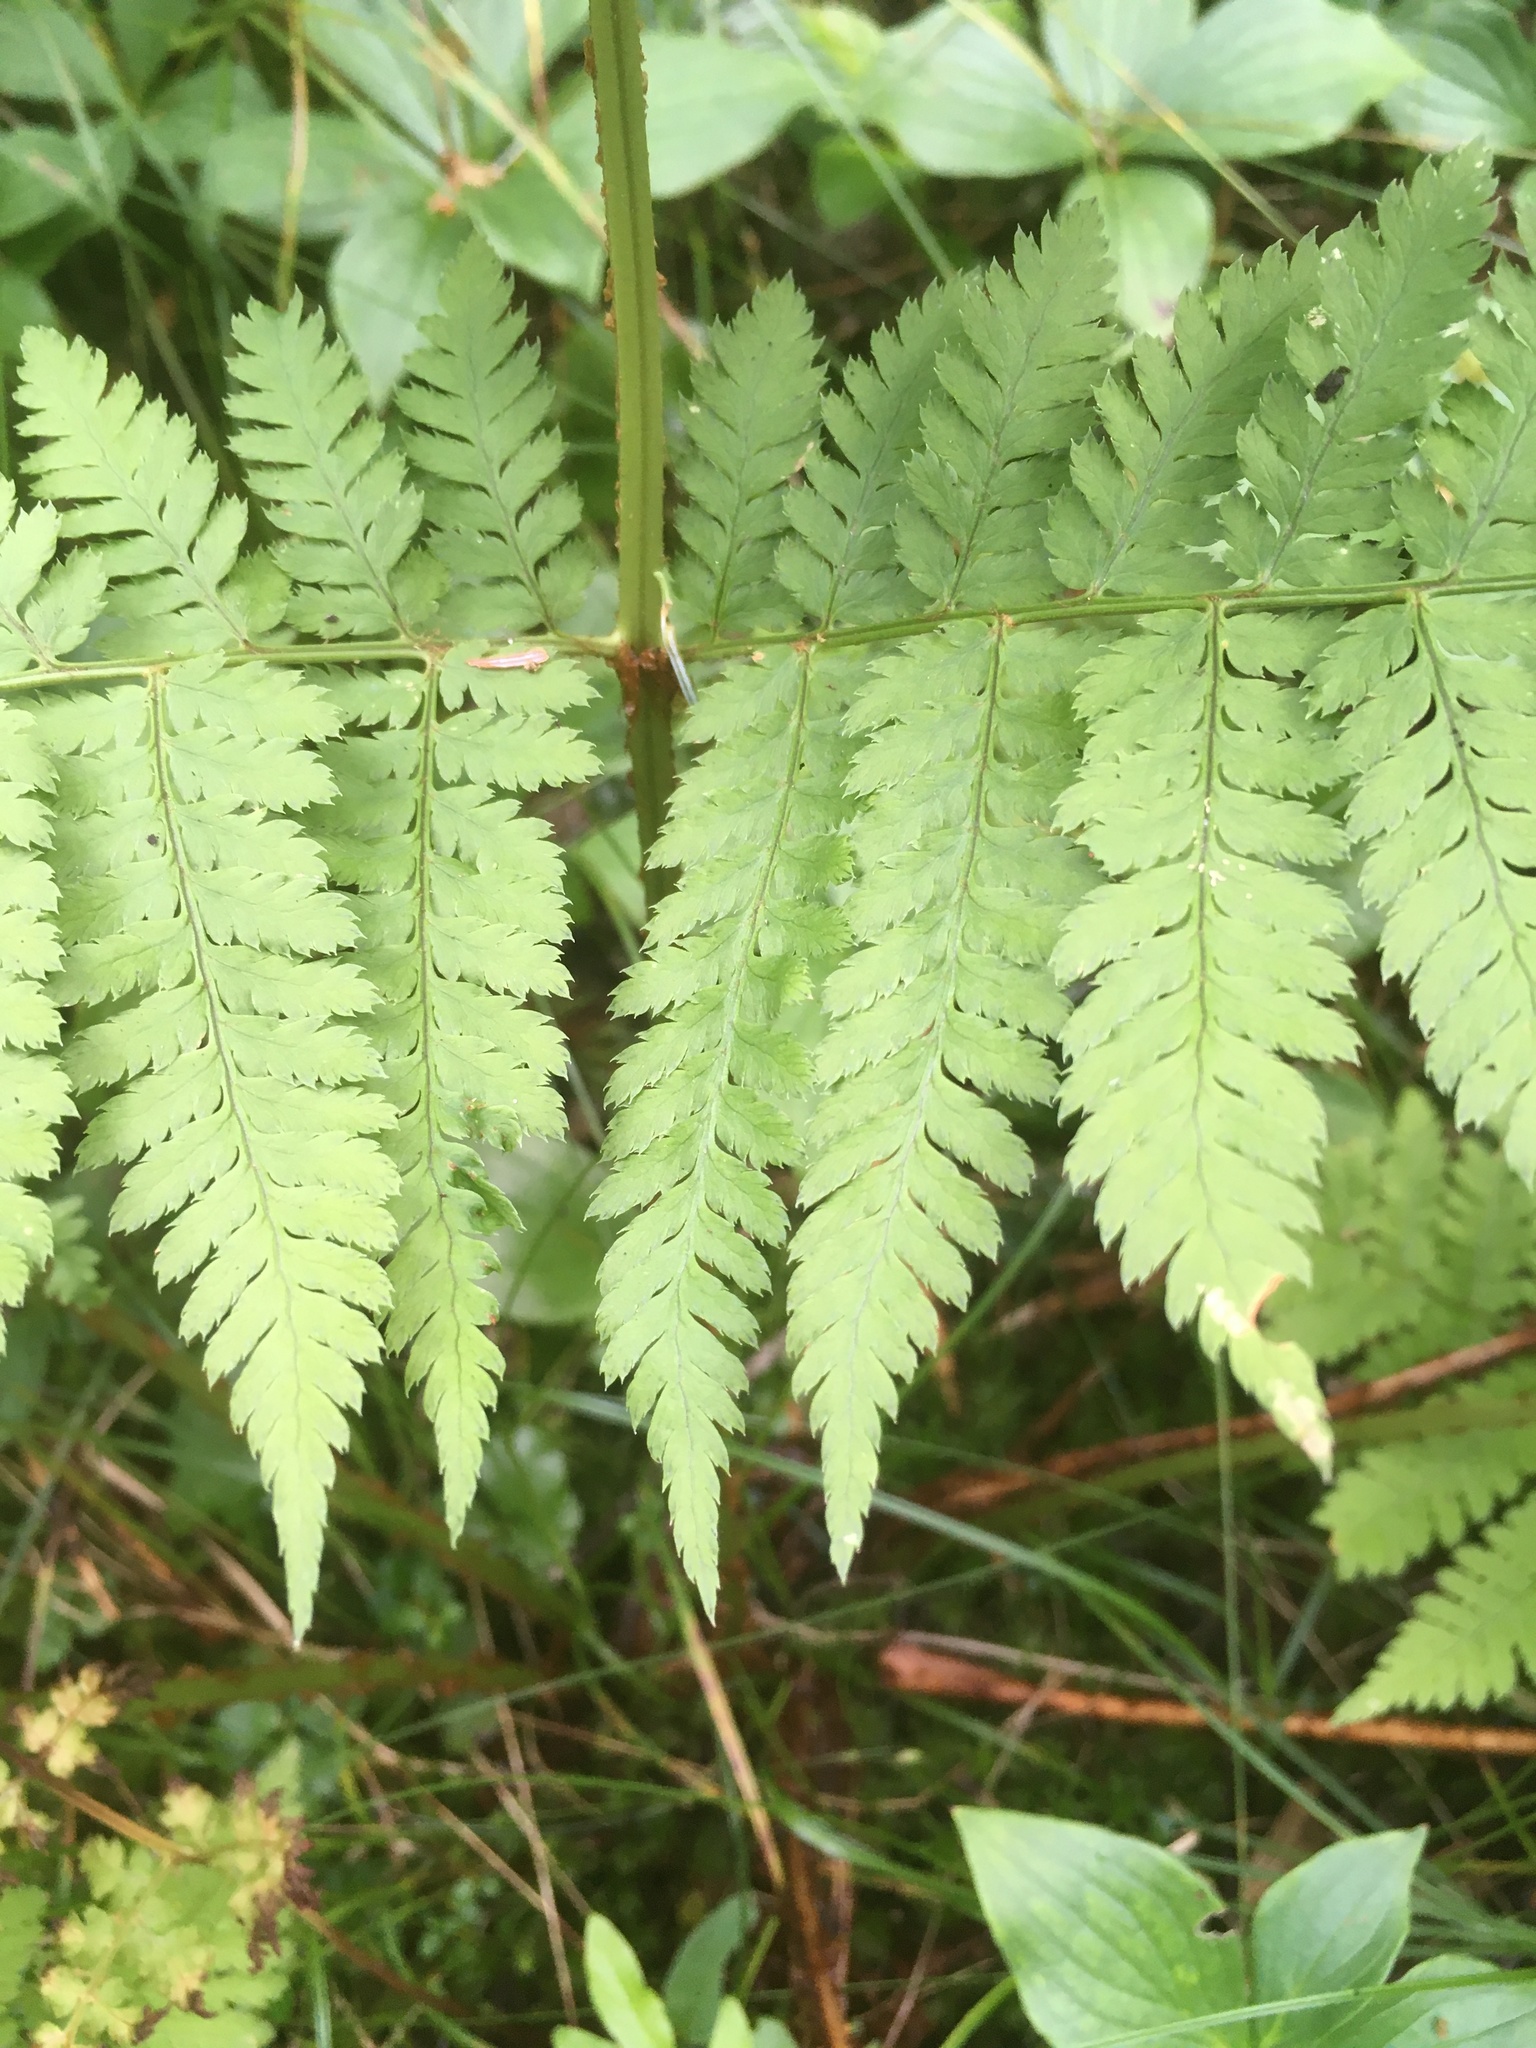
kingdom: Plantae
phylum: Tracheophyta
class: Polypodiopsida
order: Polypodiales
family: Dryopteridaceae
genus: Dryopteris
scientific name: Dryopteris campyloptera
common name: Mountain wood fern
